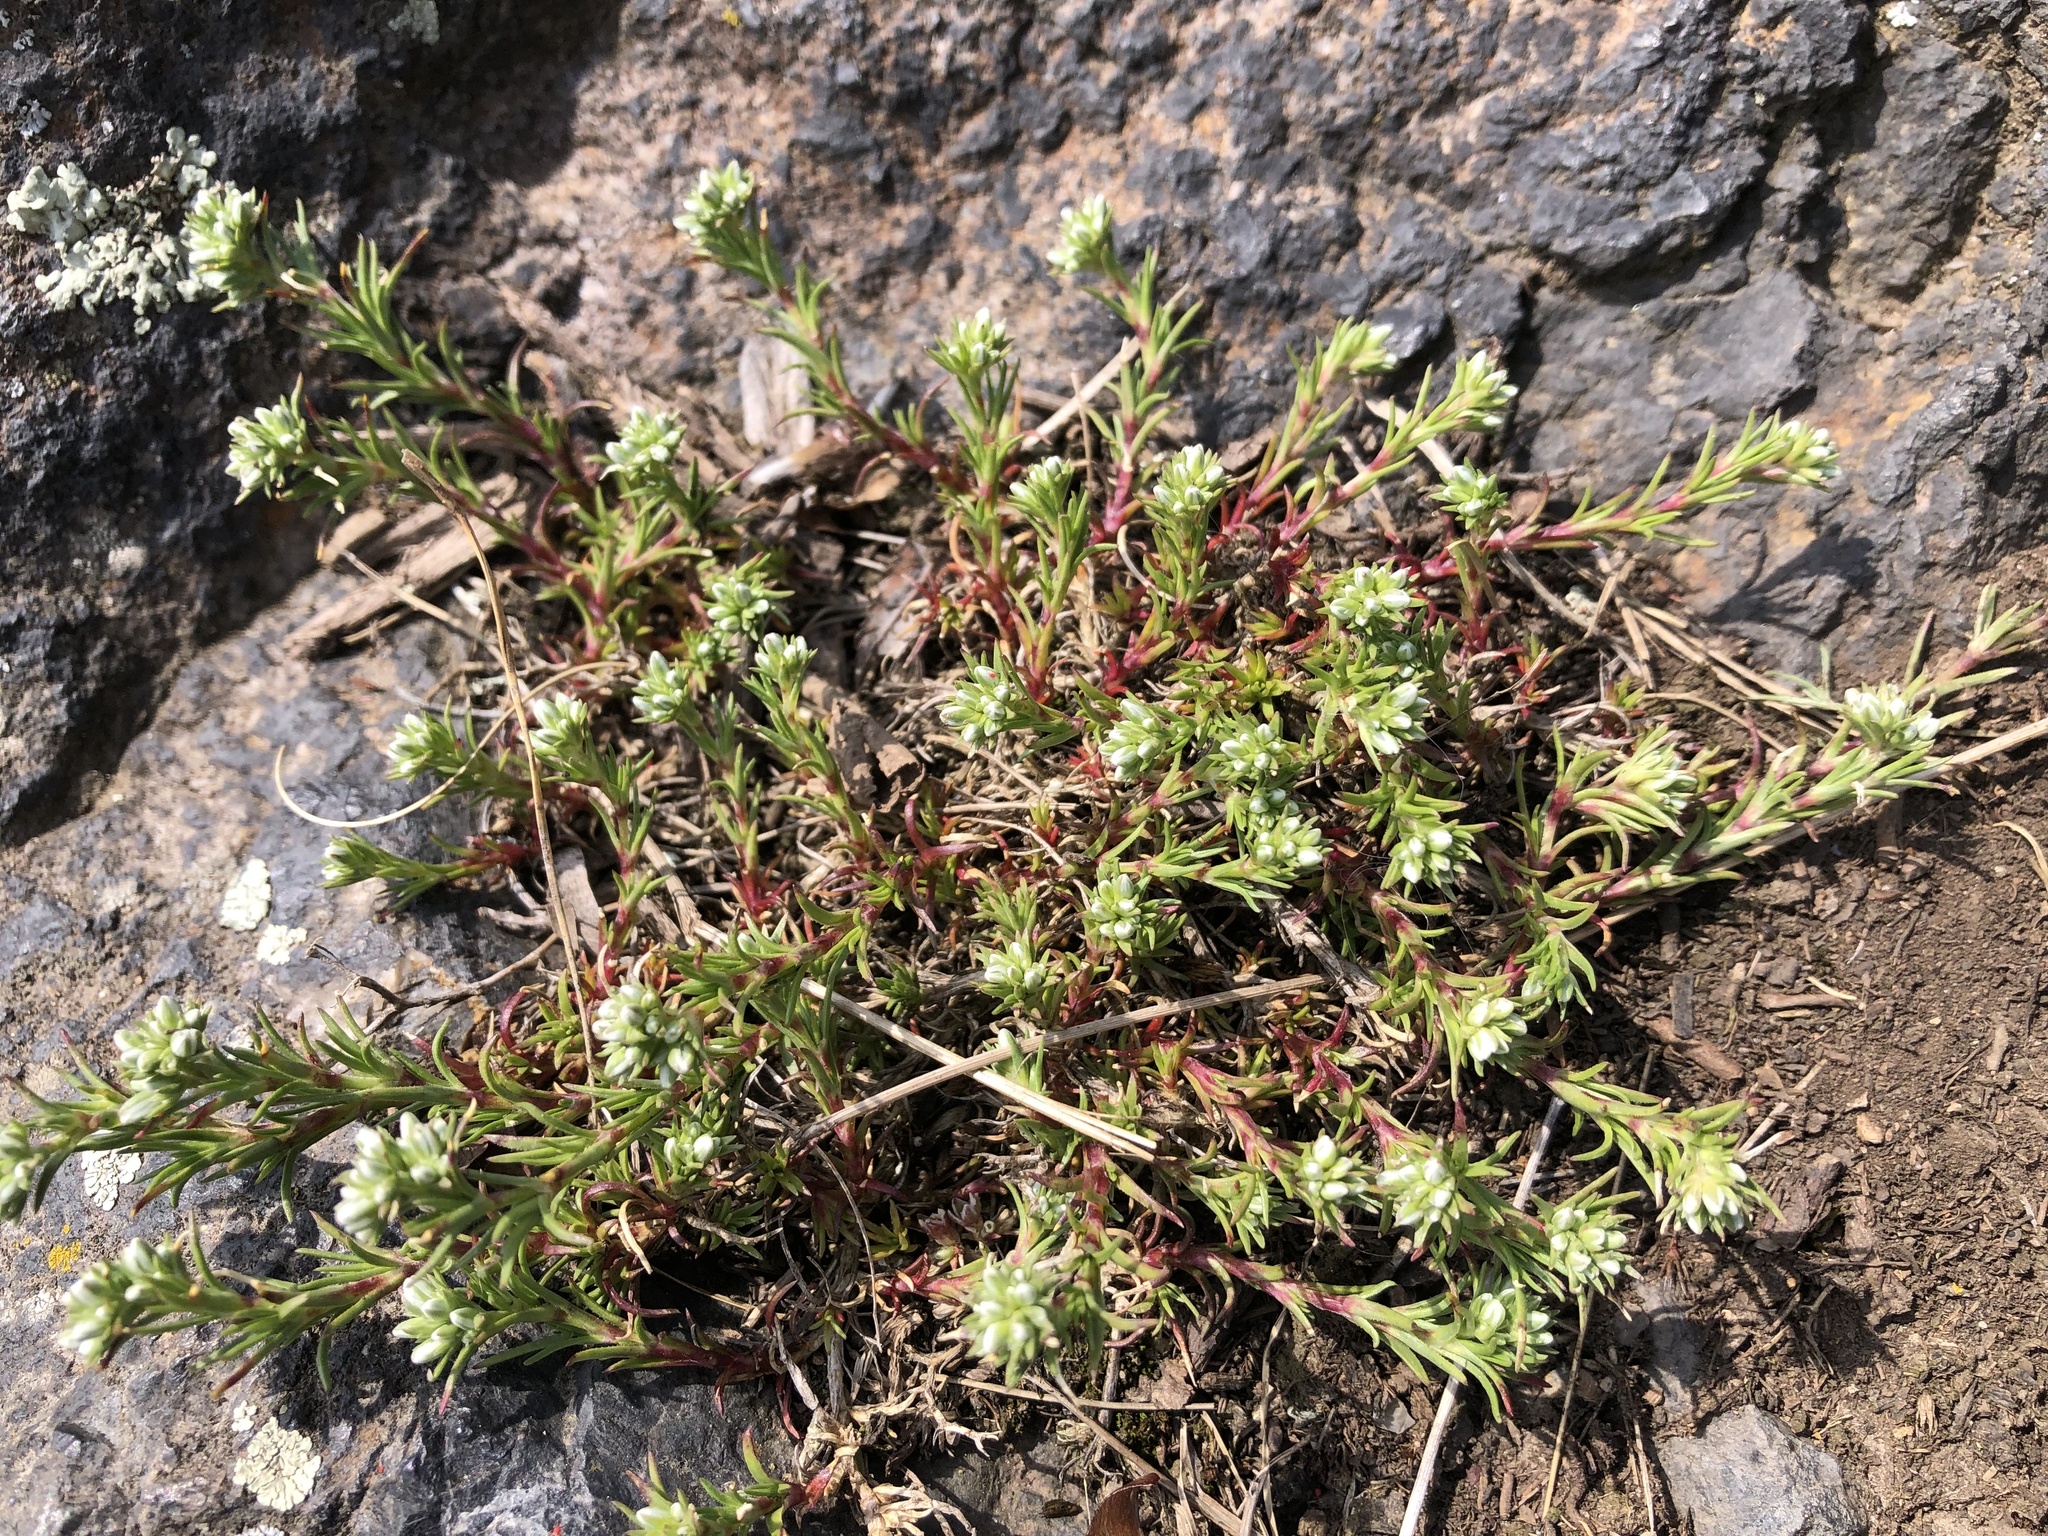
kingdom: Plantae
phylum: Tracheophyta
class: Magnoliopsida
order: Caryophyllales
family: Caryophyllaceae
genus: Scleranthus
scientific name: Scleranthus perennis
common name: Perennial knawel
